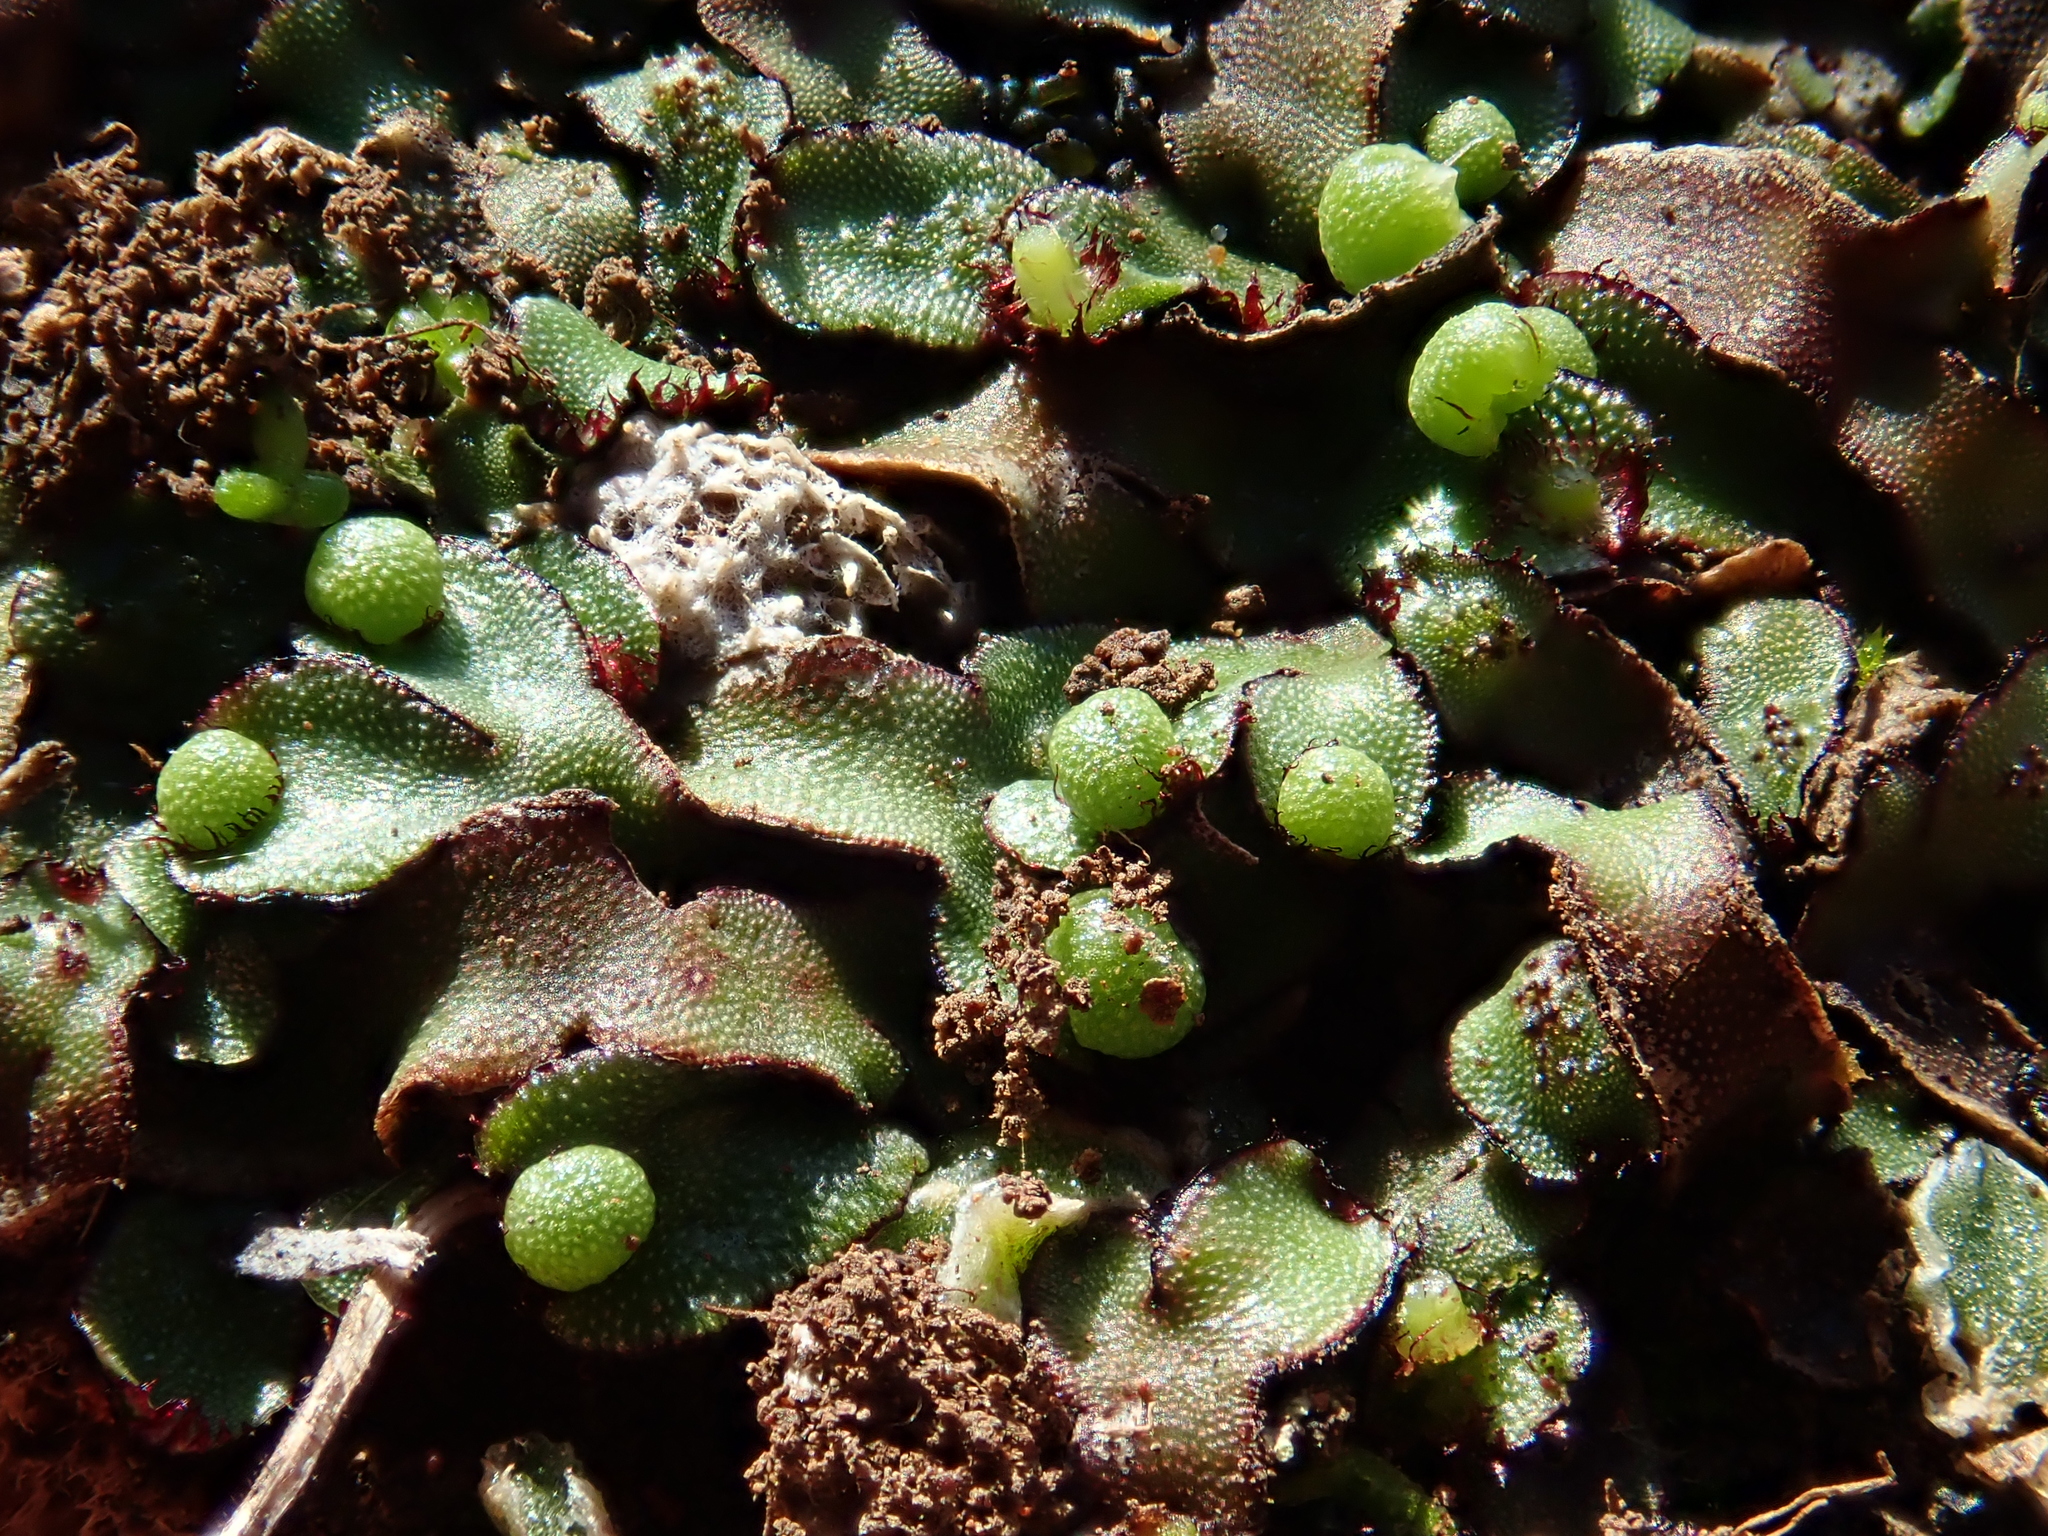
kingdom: Plantae
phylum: Marchantiophyta
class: Marchantiopsida
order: Marchantiales
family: Aytoniaceae
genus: Mannia
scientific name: Mannia androgyna
